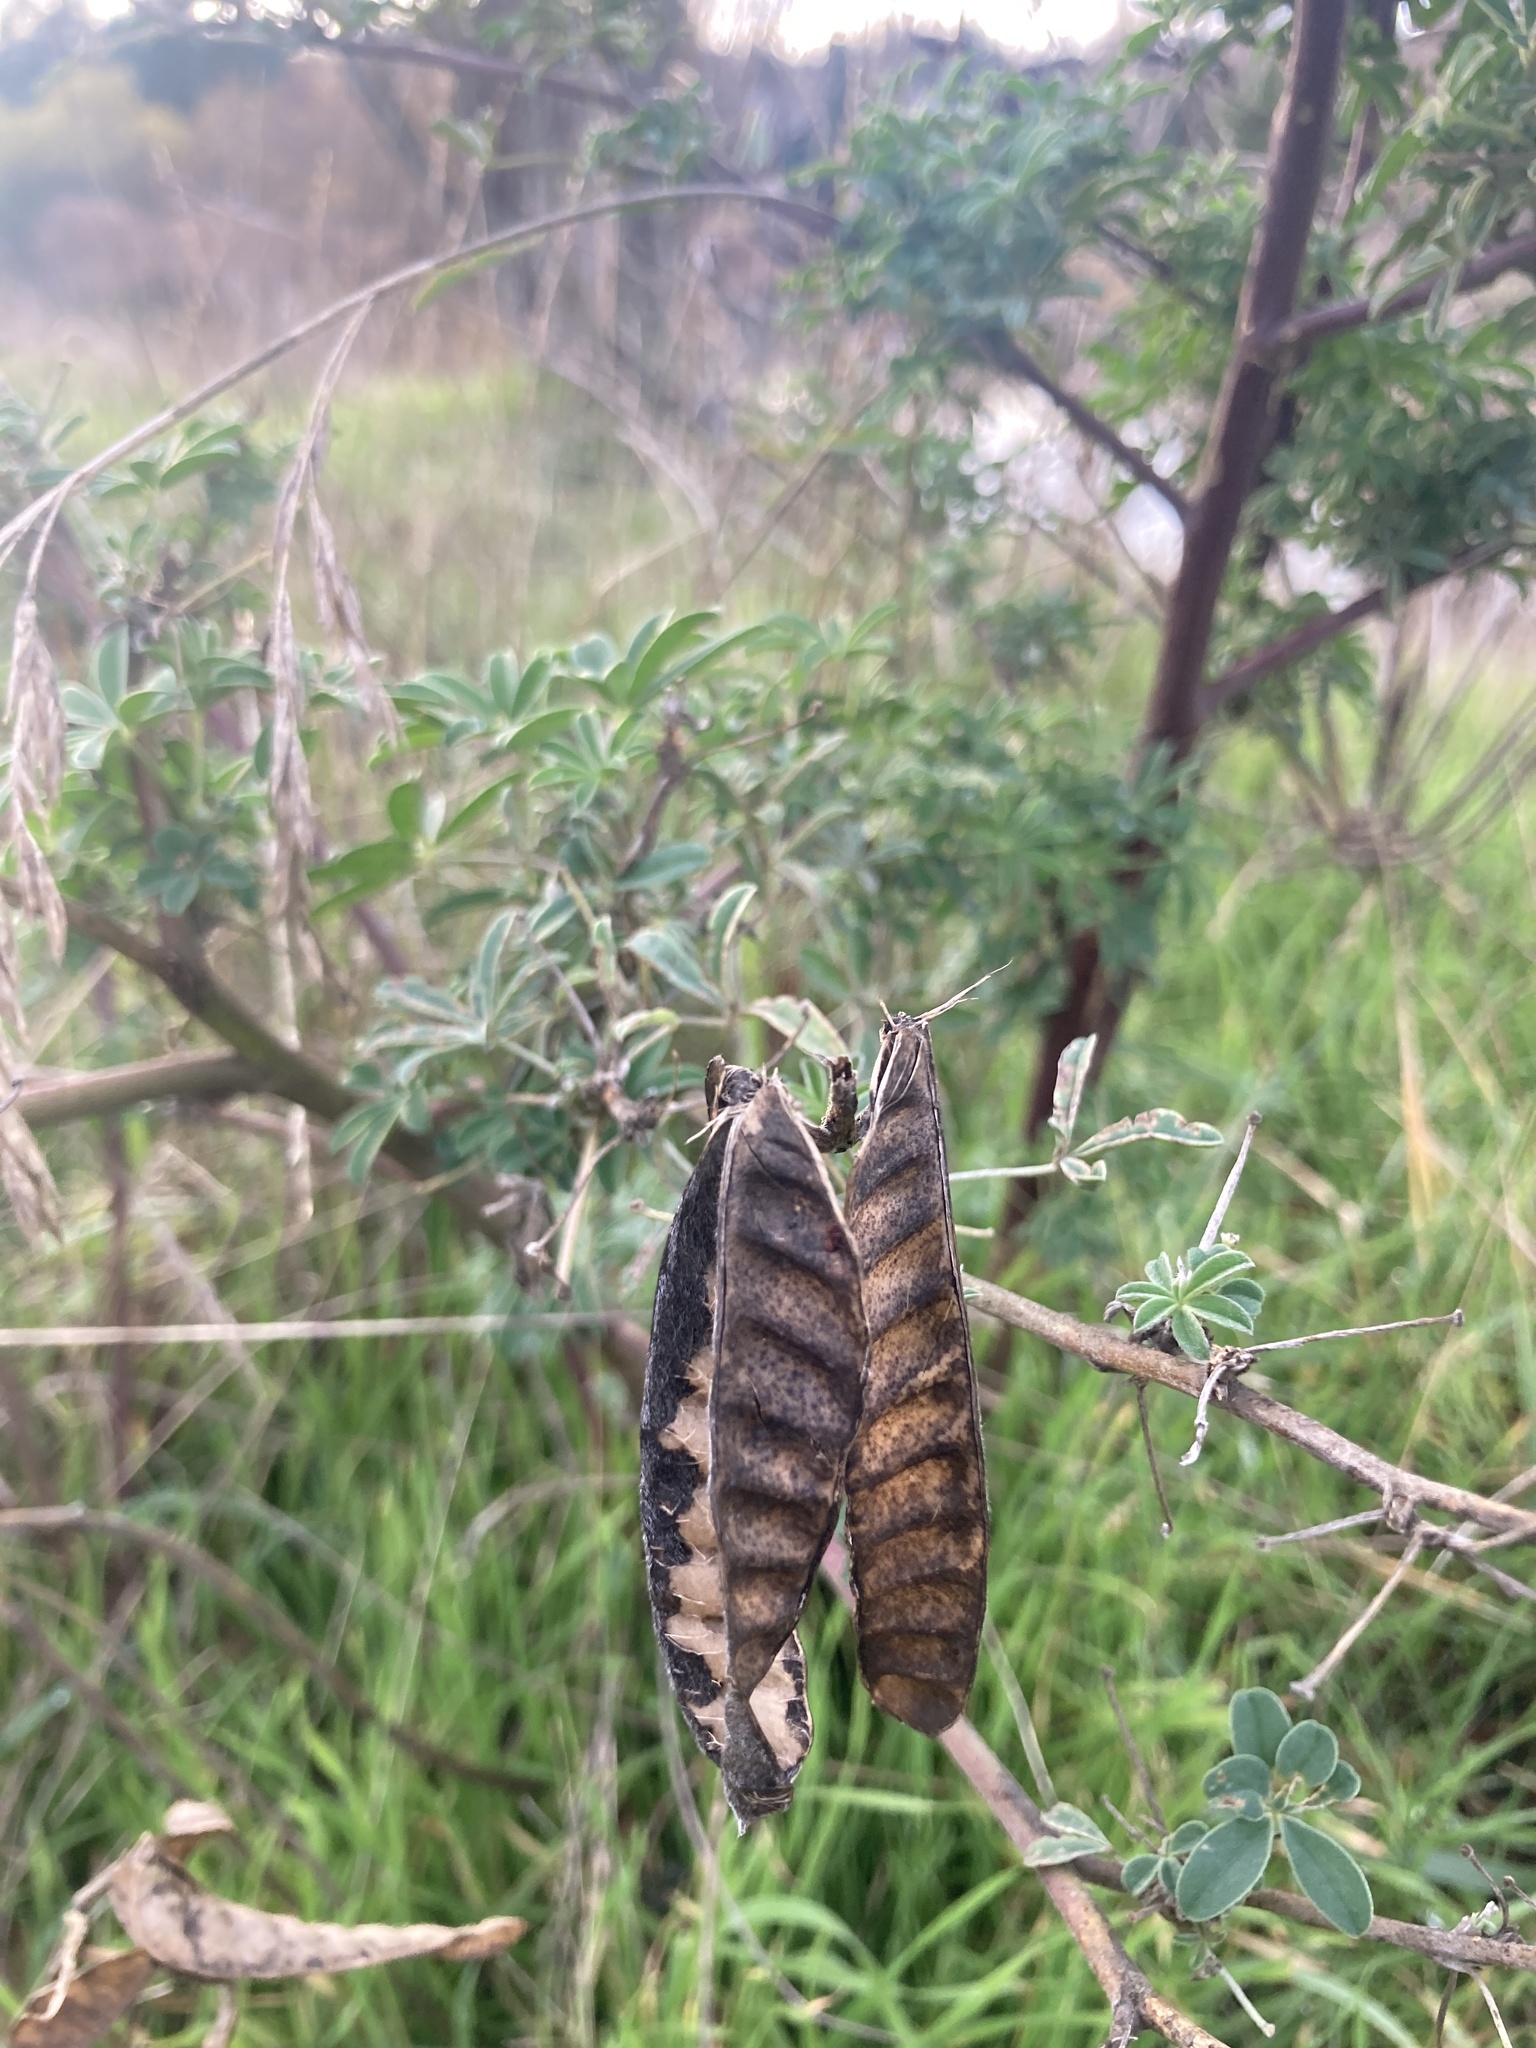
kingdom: Plantae
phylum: Tracheophyta
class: Magnoliopsida
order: Fabales
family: Fabaceae
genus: Lupinus
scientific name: Lupinus arboreus
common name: Yellow bush lupine
